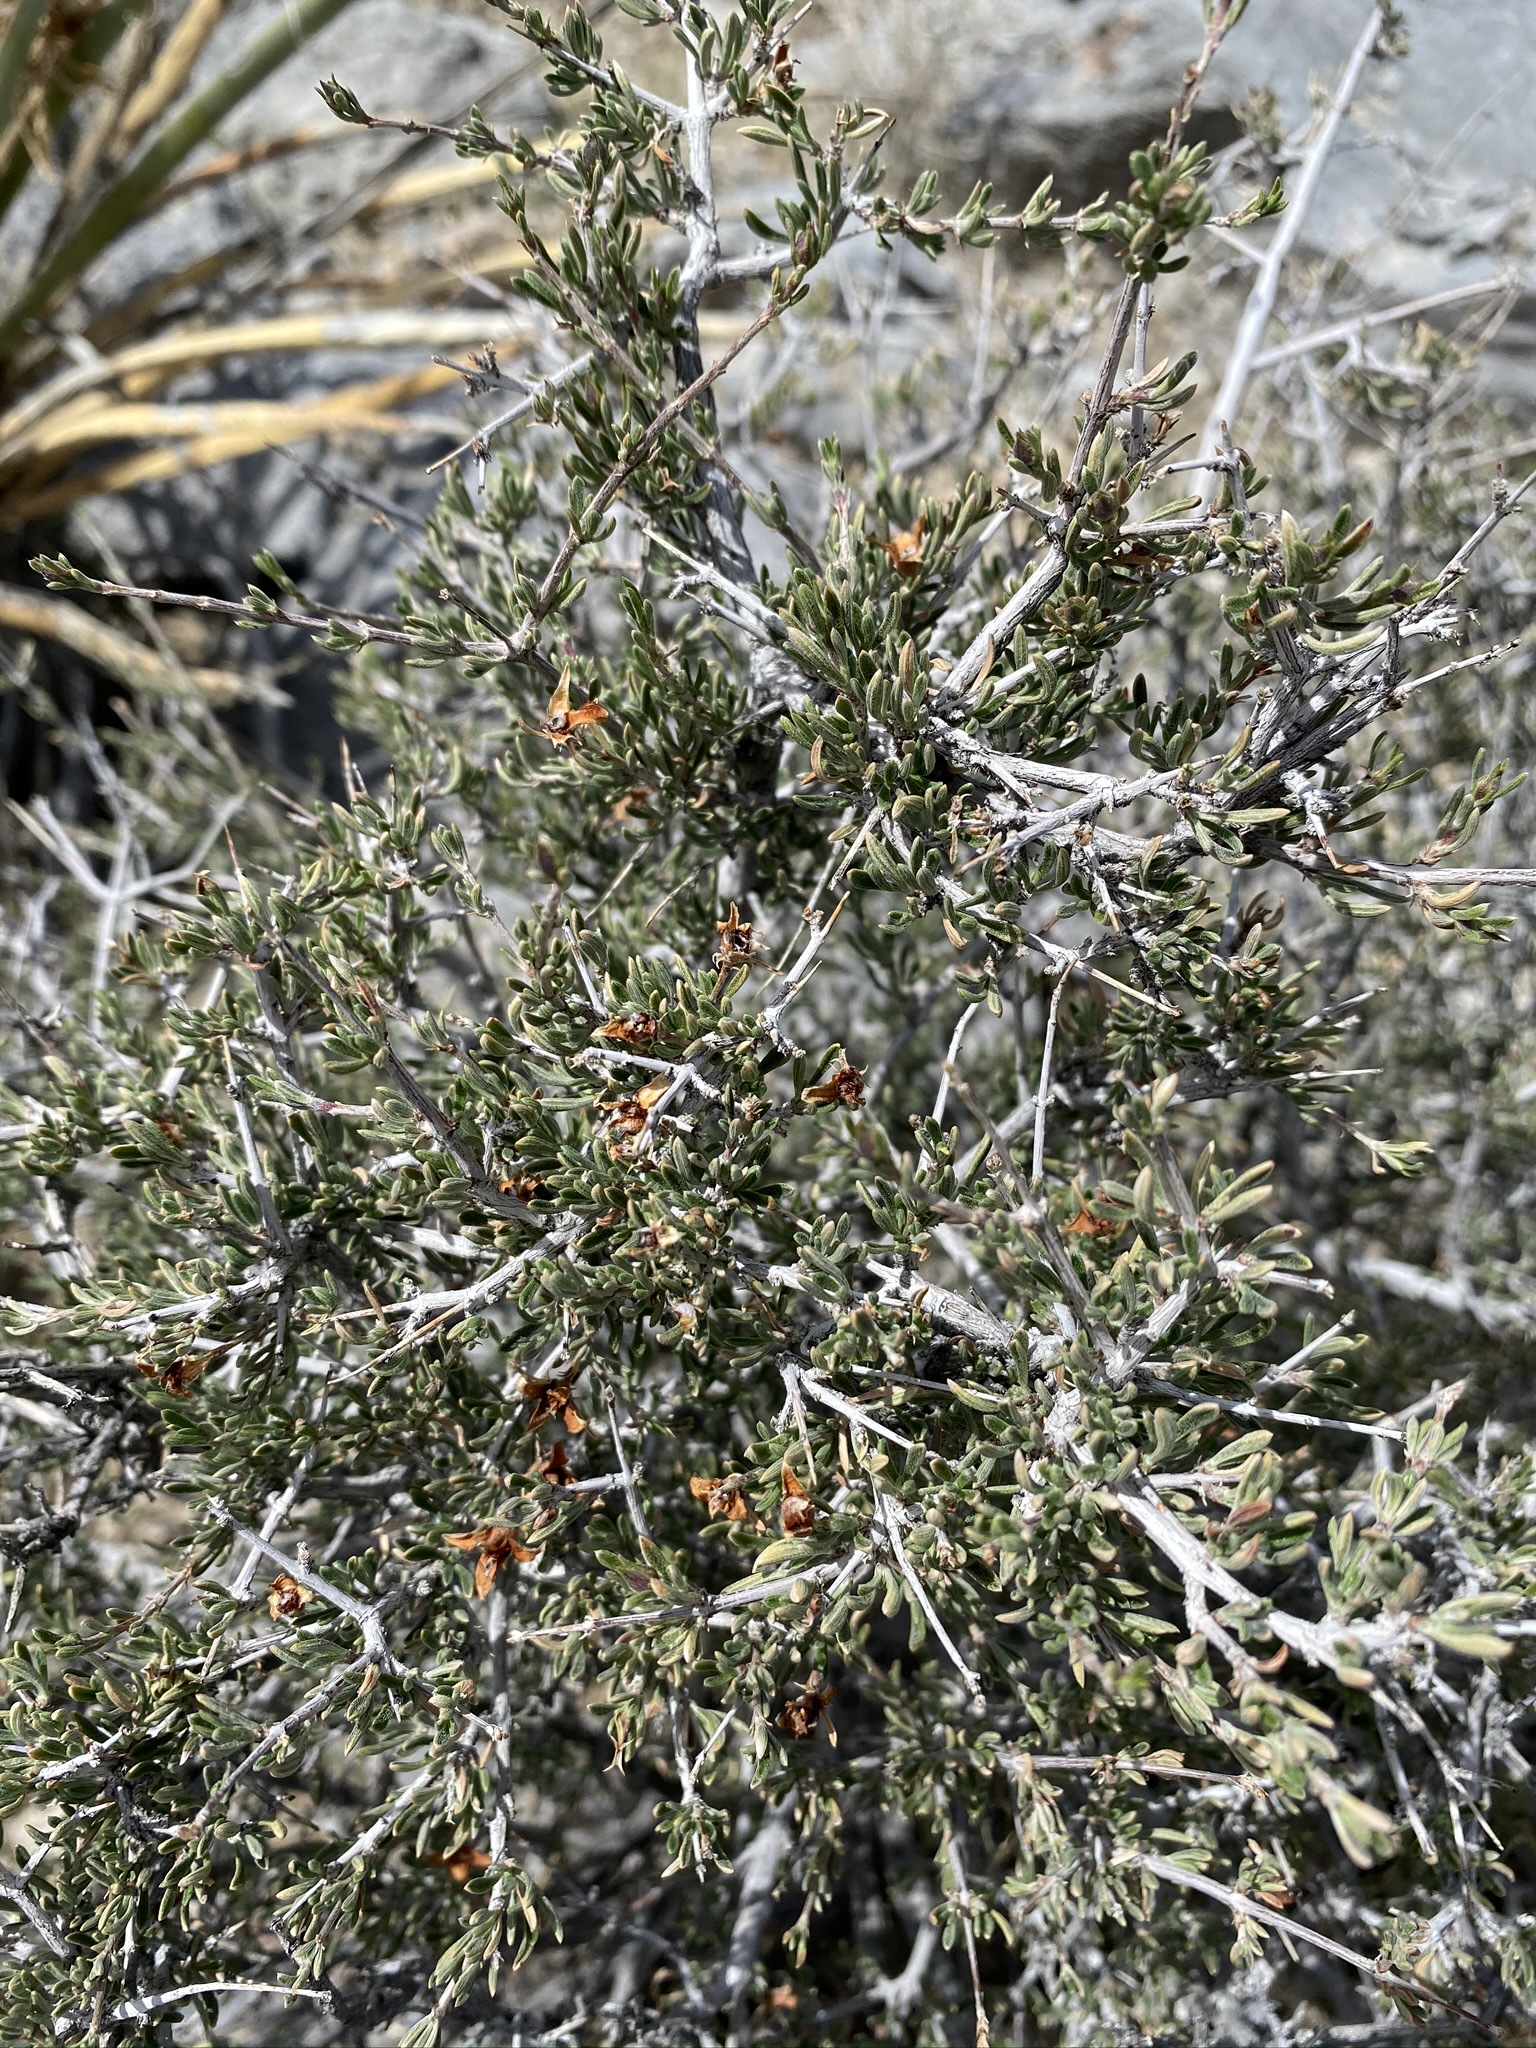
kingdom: Plantae
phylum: Tracheophyta
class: Magnoliopsida
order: Rosales
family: Rosaceae
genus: Coleogyne
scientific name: Coleogyne ramosissima
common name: Blackbrush
